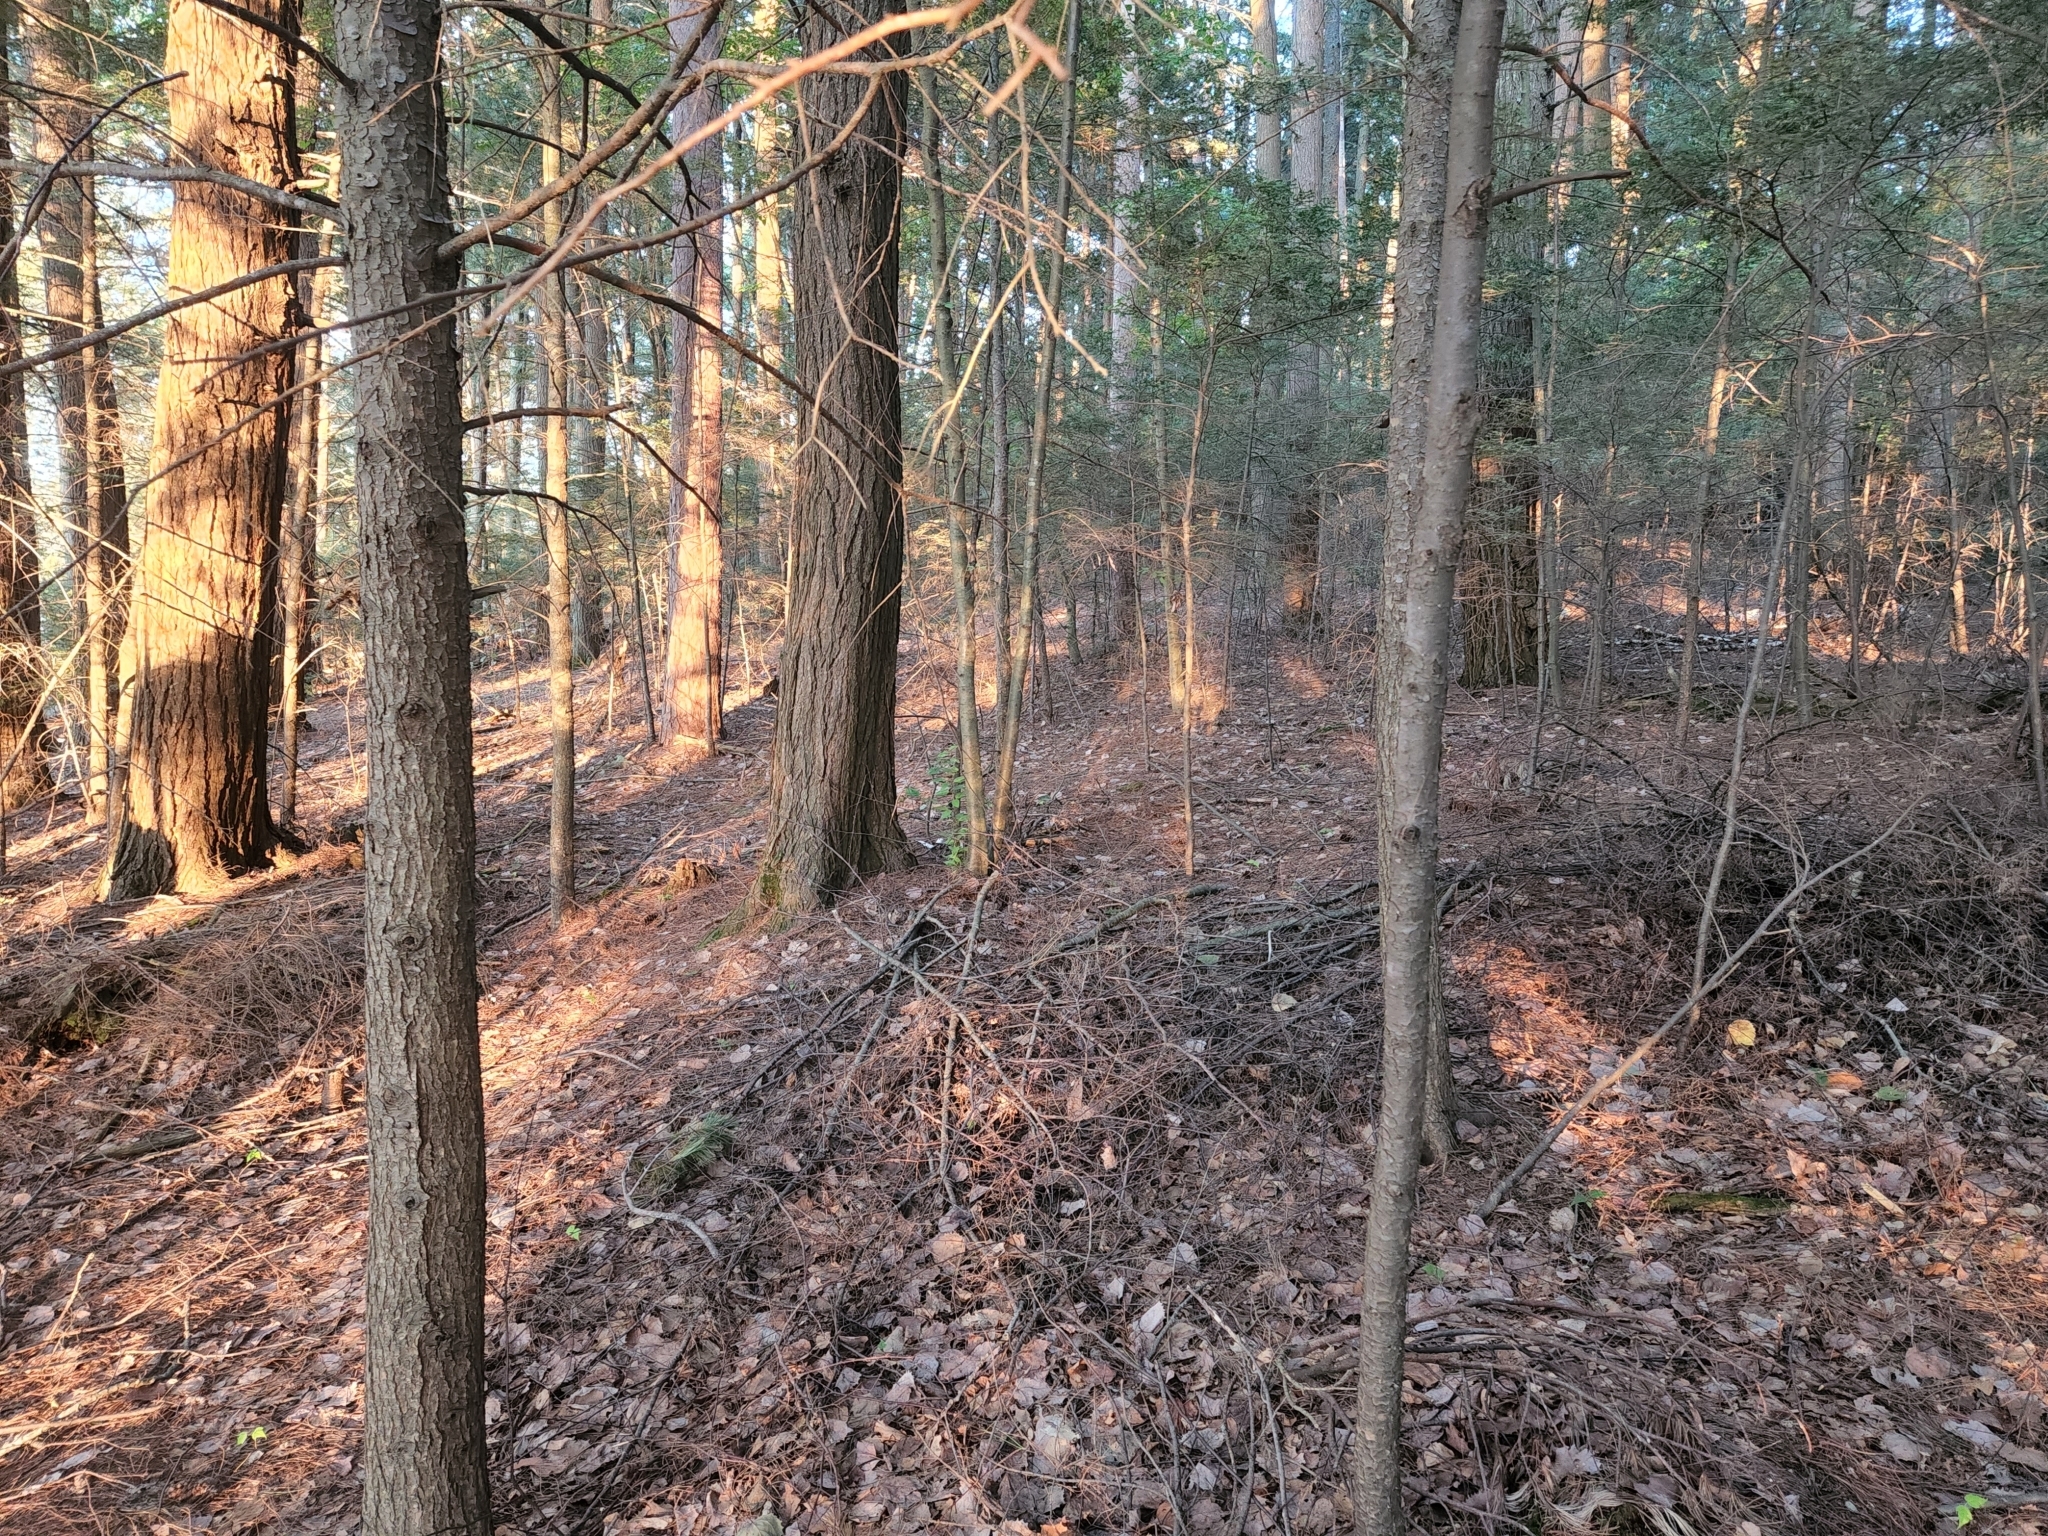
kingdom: Plantae
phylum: Tracheophyta
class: Pinopsida
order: Pinales
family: Pinaceae
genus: Tsuga
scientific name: Tsuga canadensis
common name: Eastern hemlock
